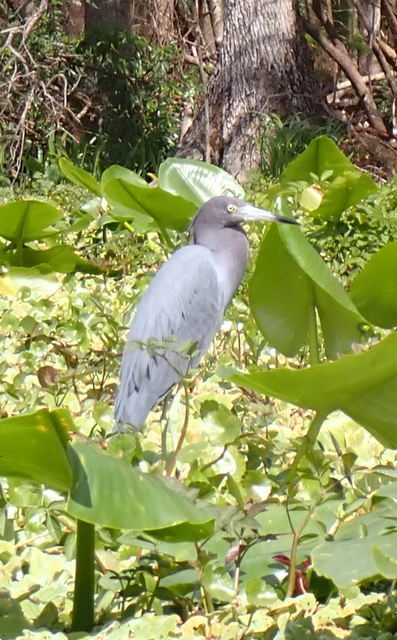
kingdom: Animalia
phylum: Chordata
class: Aves
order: Pelecaniformes
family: Ardeidae
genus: Egretta
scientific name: Egretta caerulea
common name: Little blue heron
